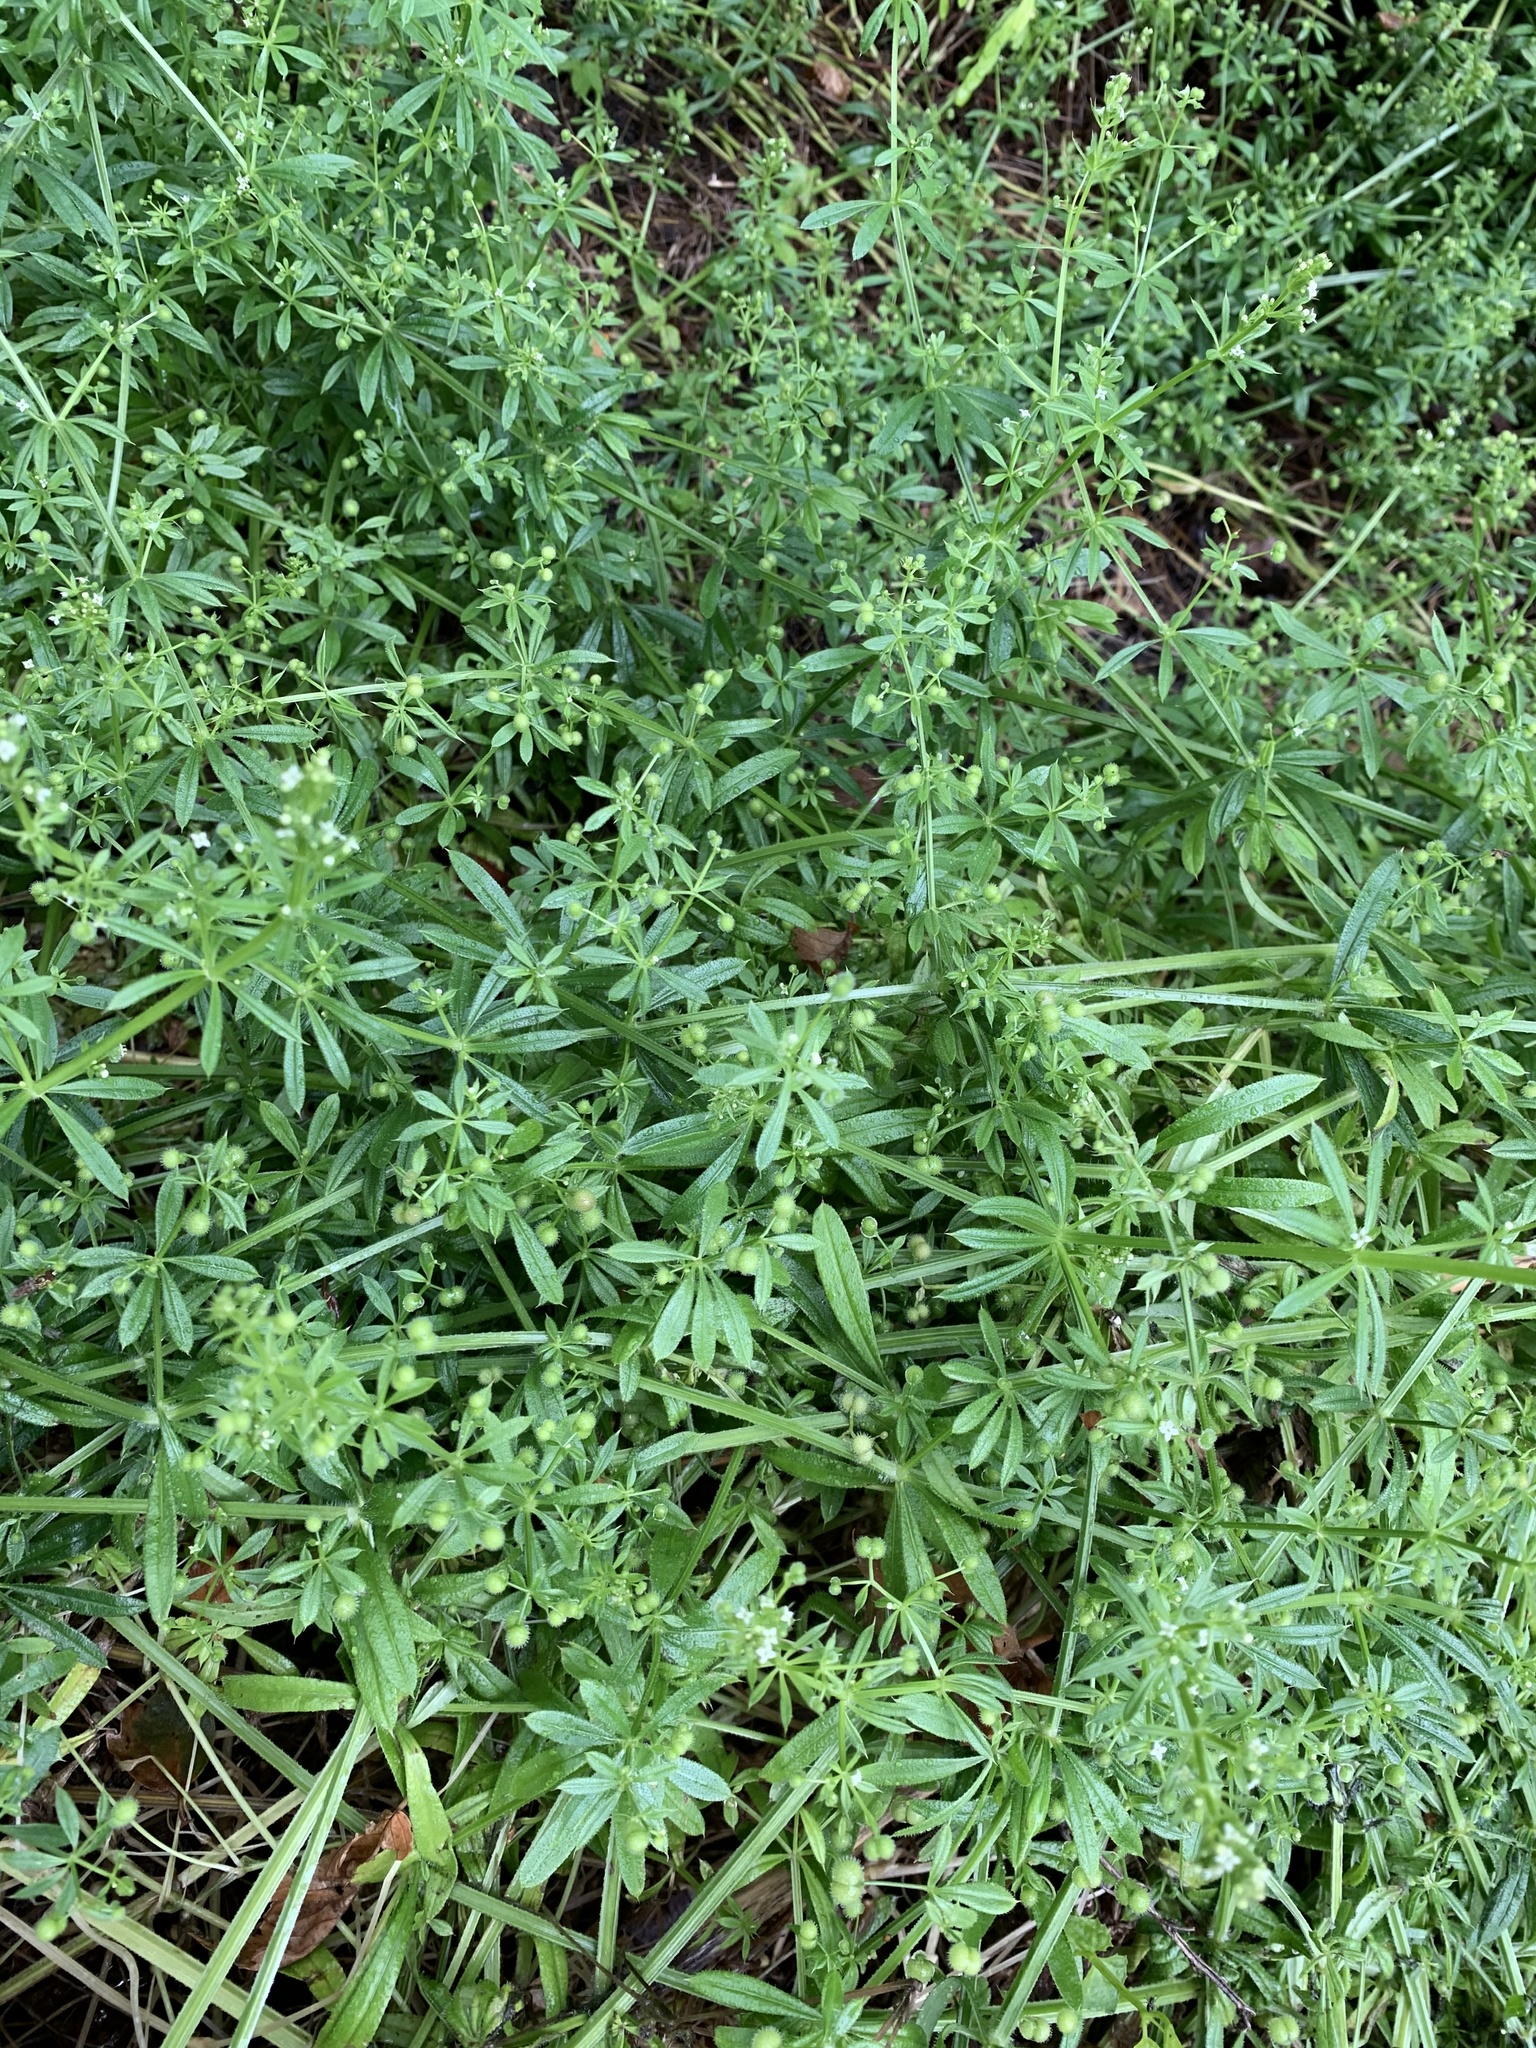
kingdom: Plantae
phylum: Tracheophyta
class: Magnoliopsida
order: Gentianales
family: Rubiaceae
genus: Galium
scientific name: Galium aparine
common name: Cleavers
